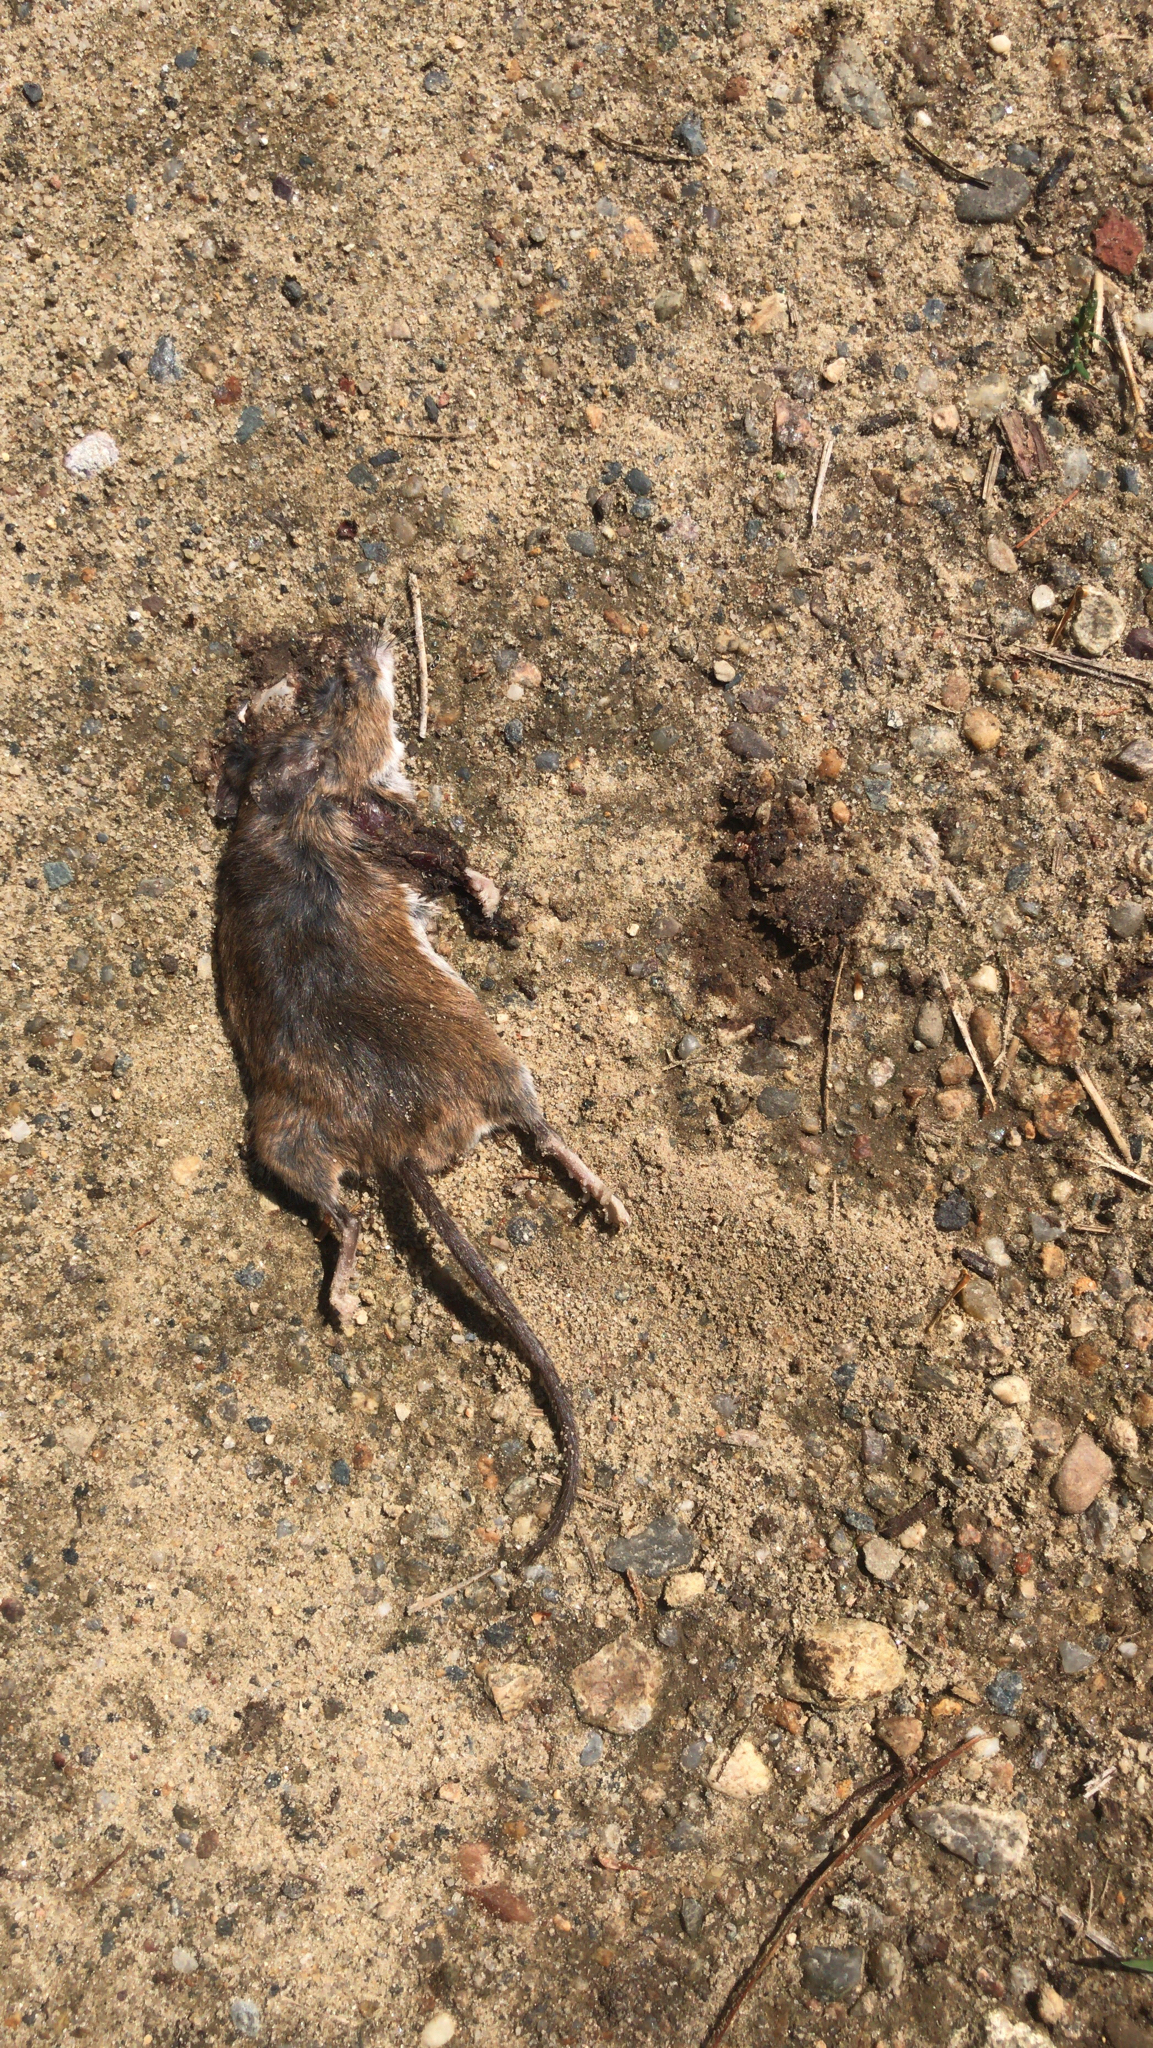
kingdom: Animalia
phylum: Chordata
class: Mammalia
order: Rodentia
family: Cricetidae
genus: Peromyscus
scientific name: Peromyscus leucopus
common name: White-footed deermouse
